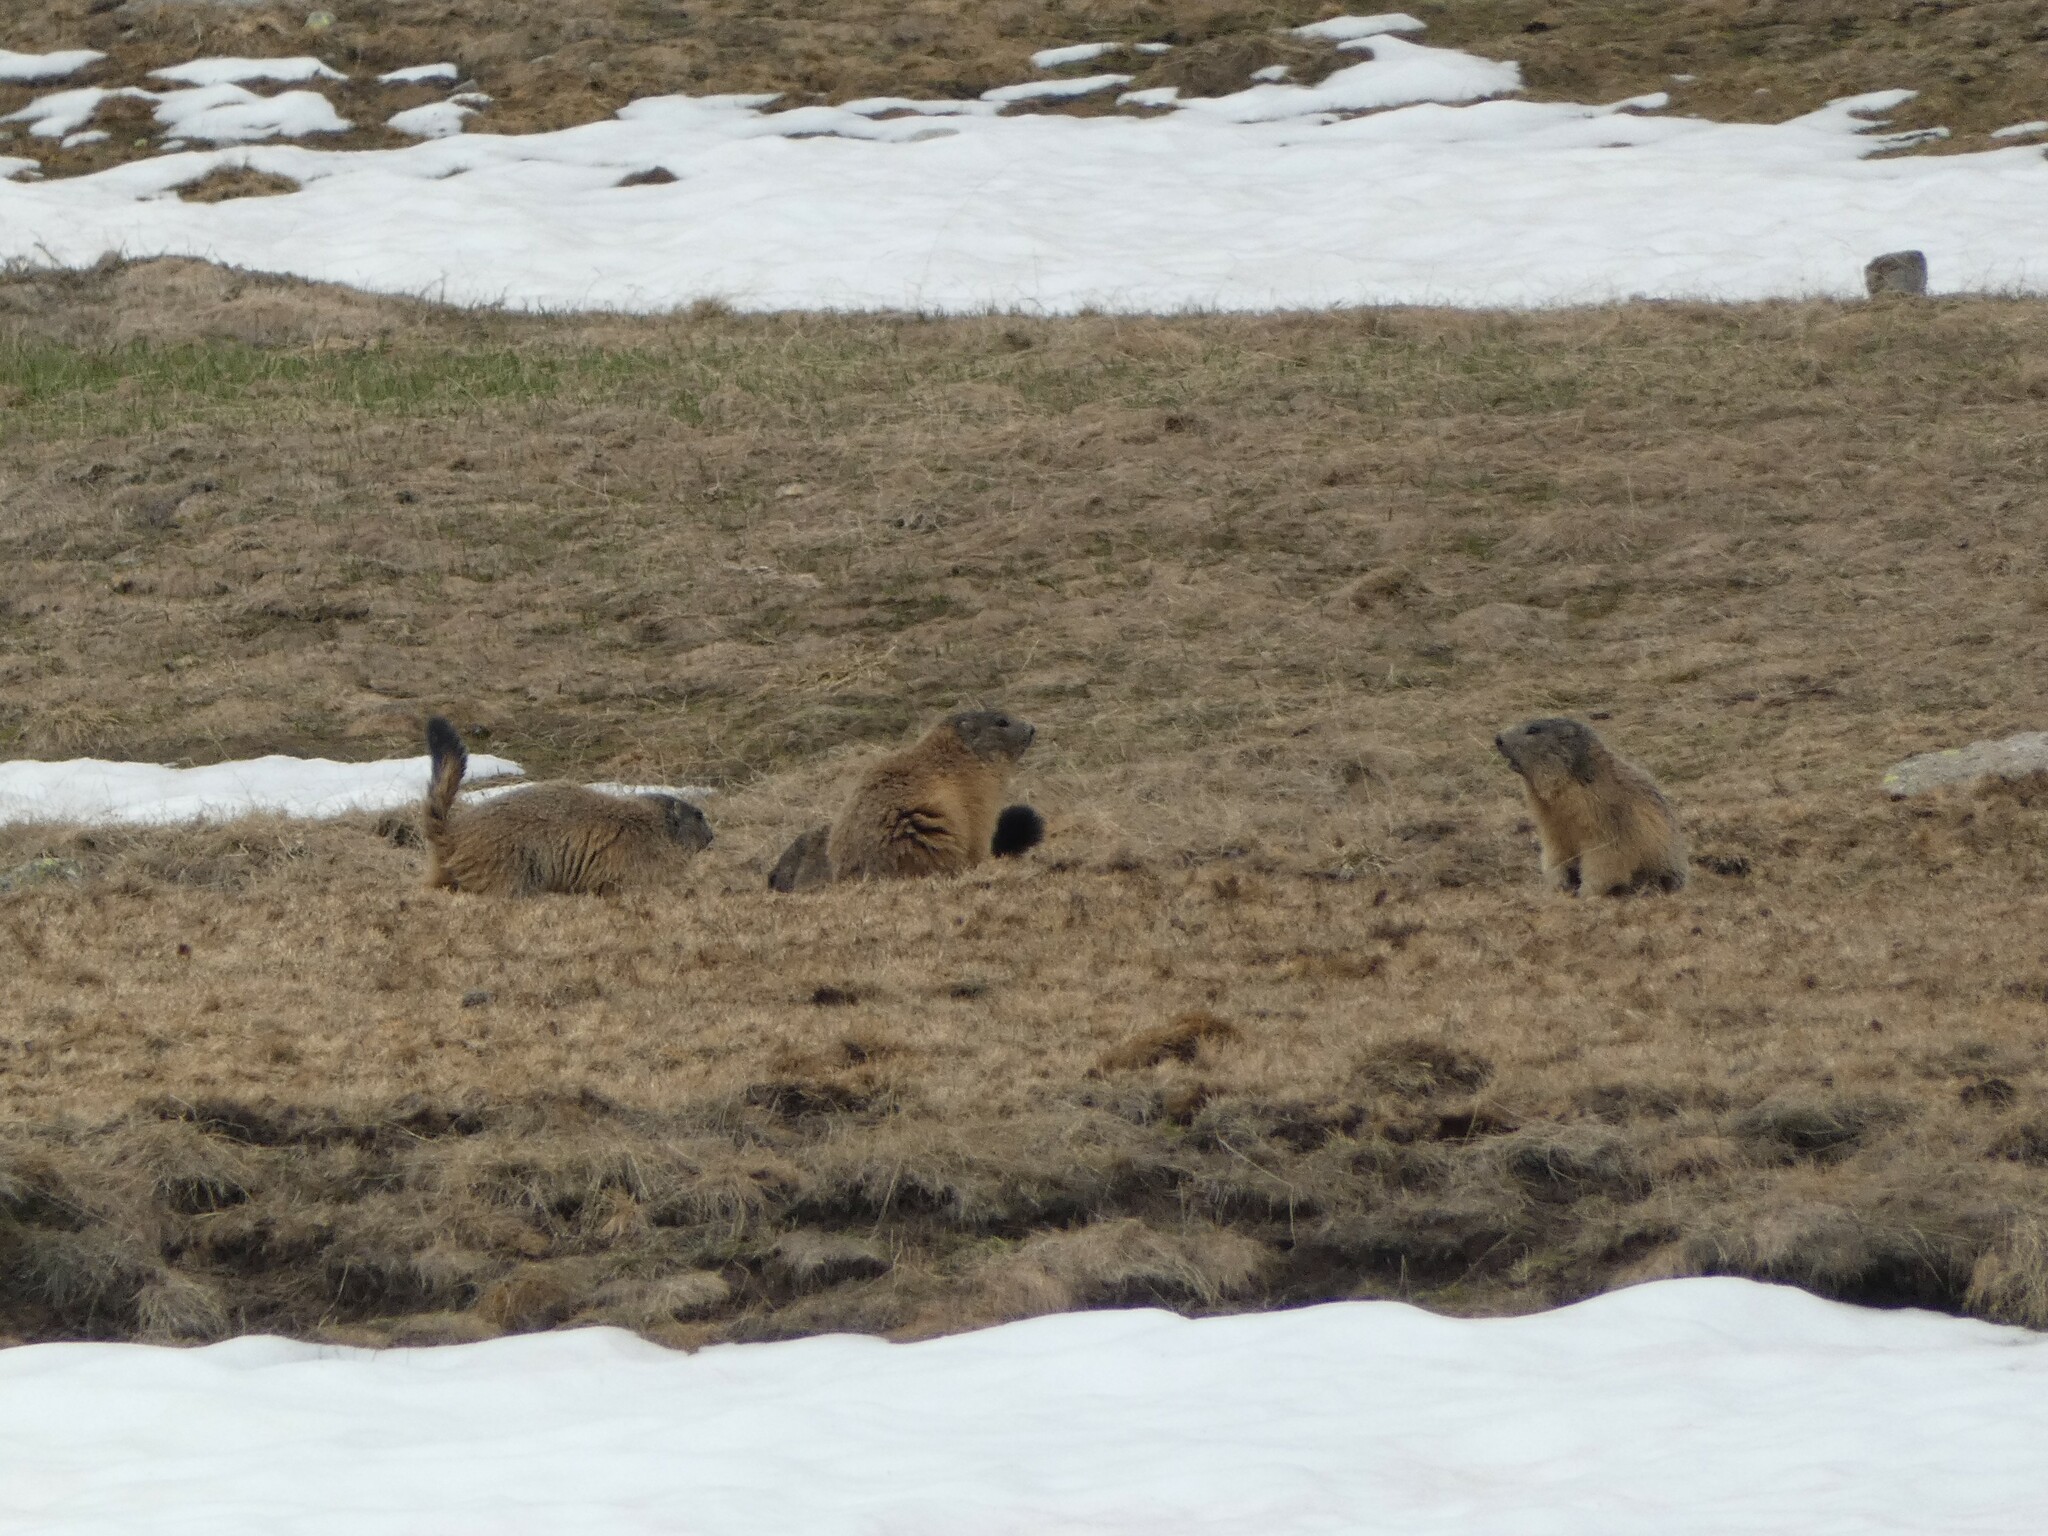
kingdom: Animalia
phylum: Chordata
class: Mammalia
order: Rodentia
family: Sciuridae
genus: Marmota
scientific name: Marmota marmota
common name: Alpine marmot
